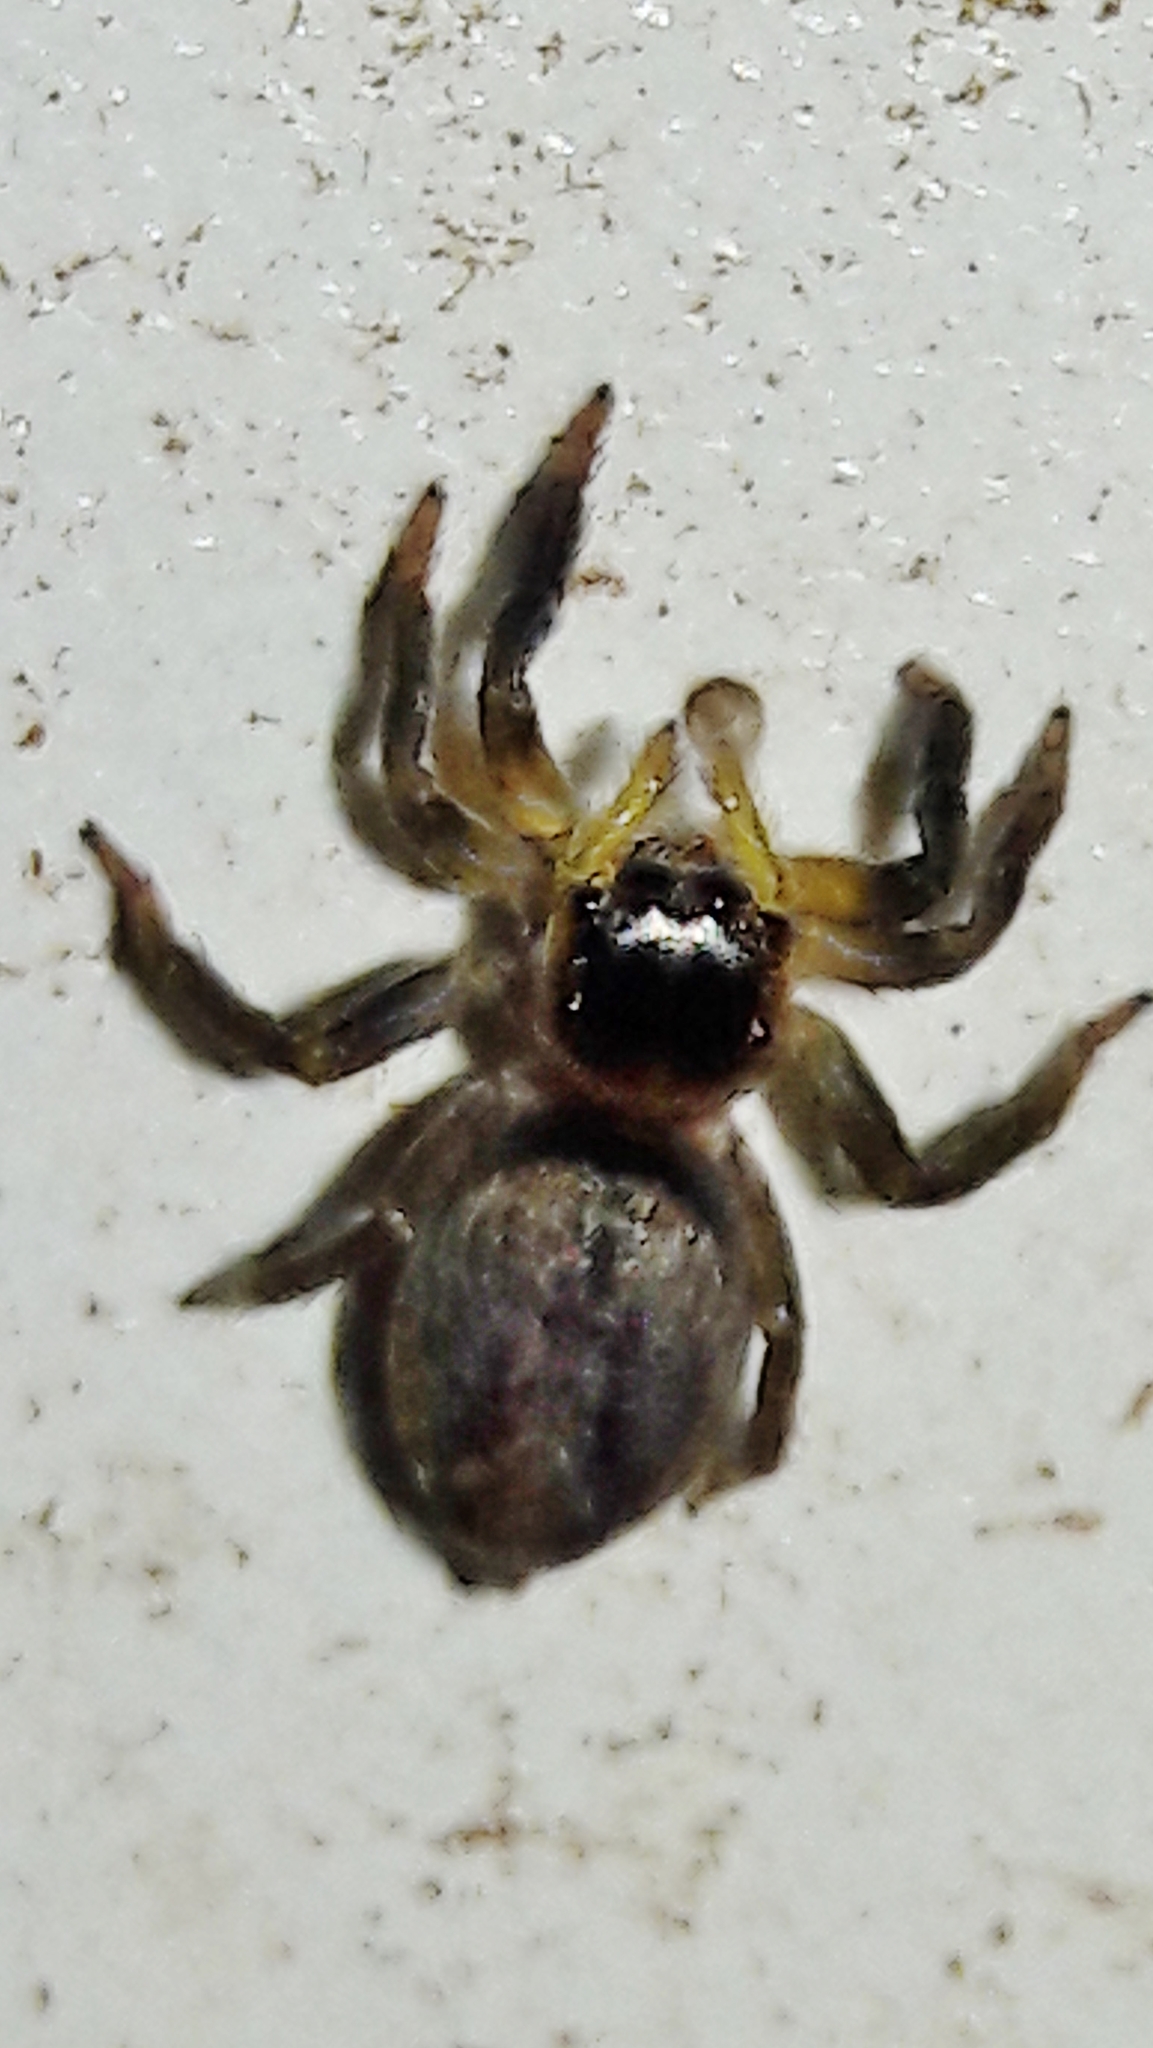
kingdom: Animalia
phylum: Arthropoda
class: Arachnida
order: Araneae
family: Salticidae
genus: Hasarius
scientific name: Hasarius adansoni
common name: Jumping spider
